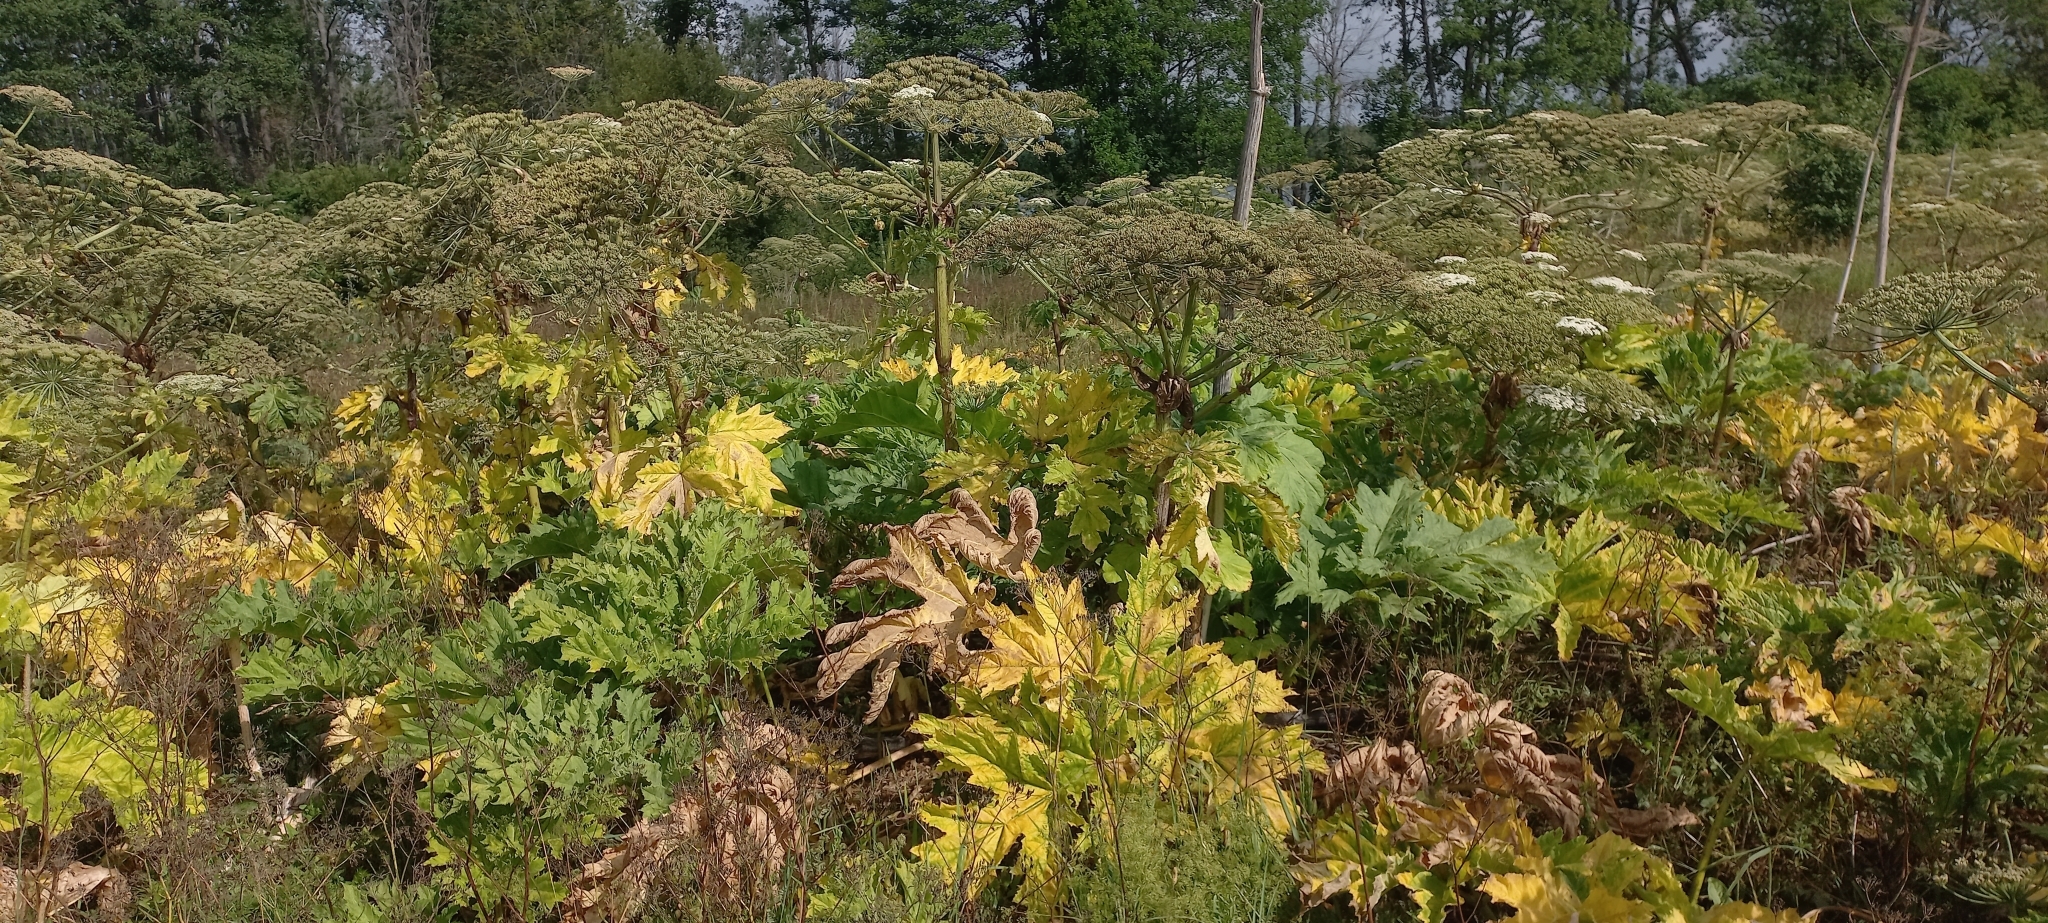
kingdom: Plantae
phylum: Tracheophyta
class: Magnoliopsida
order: Apiales
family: Apiaceae
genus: Heracleum
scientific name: Heracleum sosnowskyi
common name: Sosnowsky's hogweed
